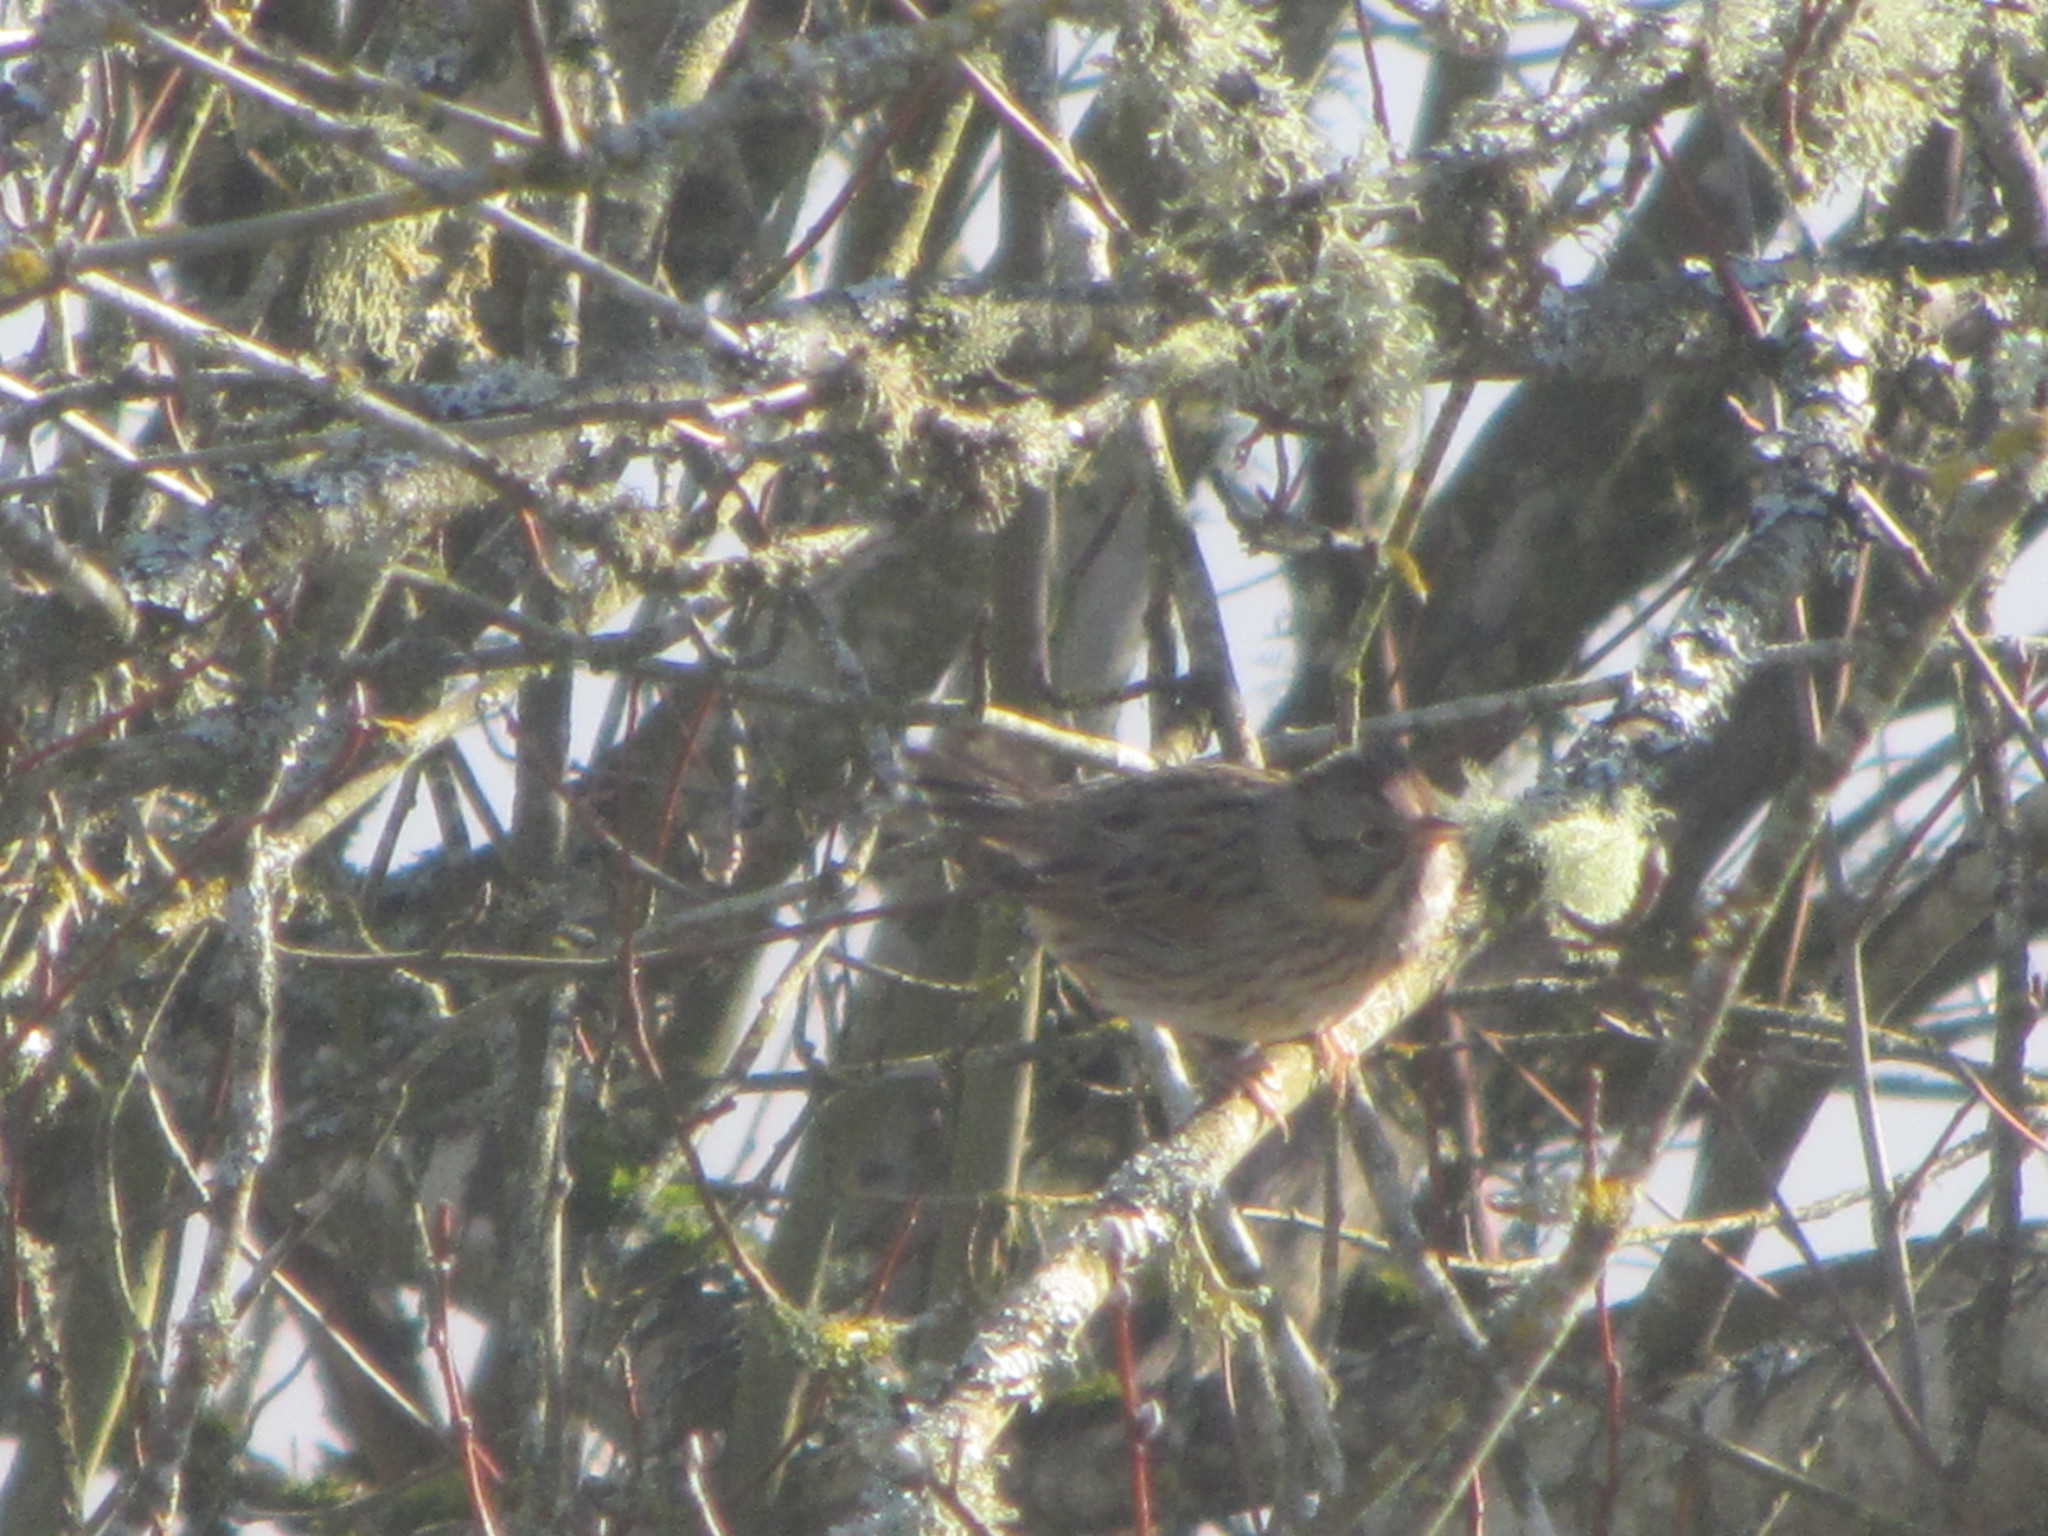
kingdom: Animalia
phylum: Chordata
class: Aves
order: Passeriformes
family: Passerellidae
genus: Melospiza
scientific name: Melospiza lincolnii
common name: Lincoln's sparrow
